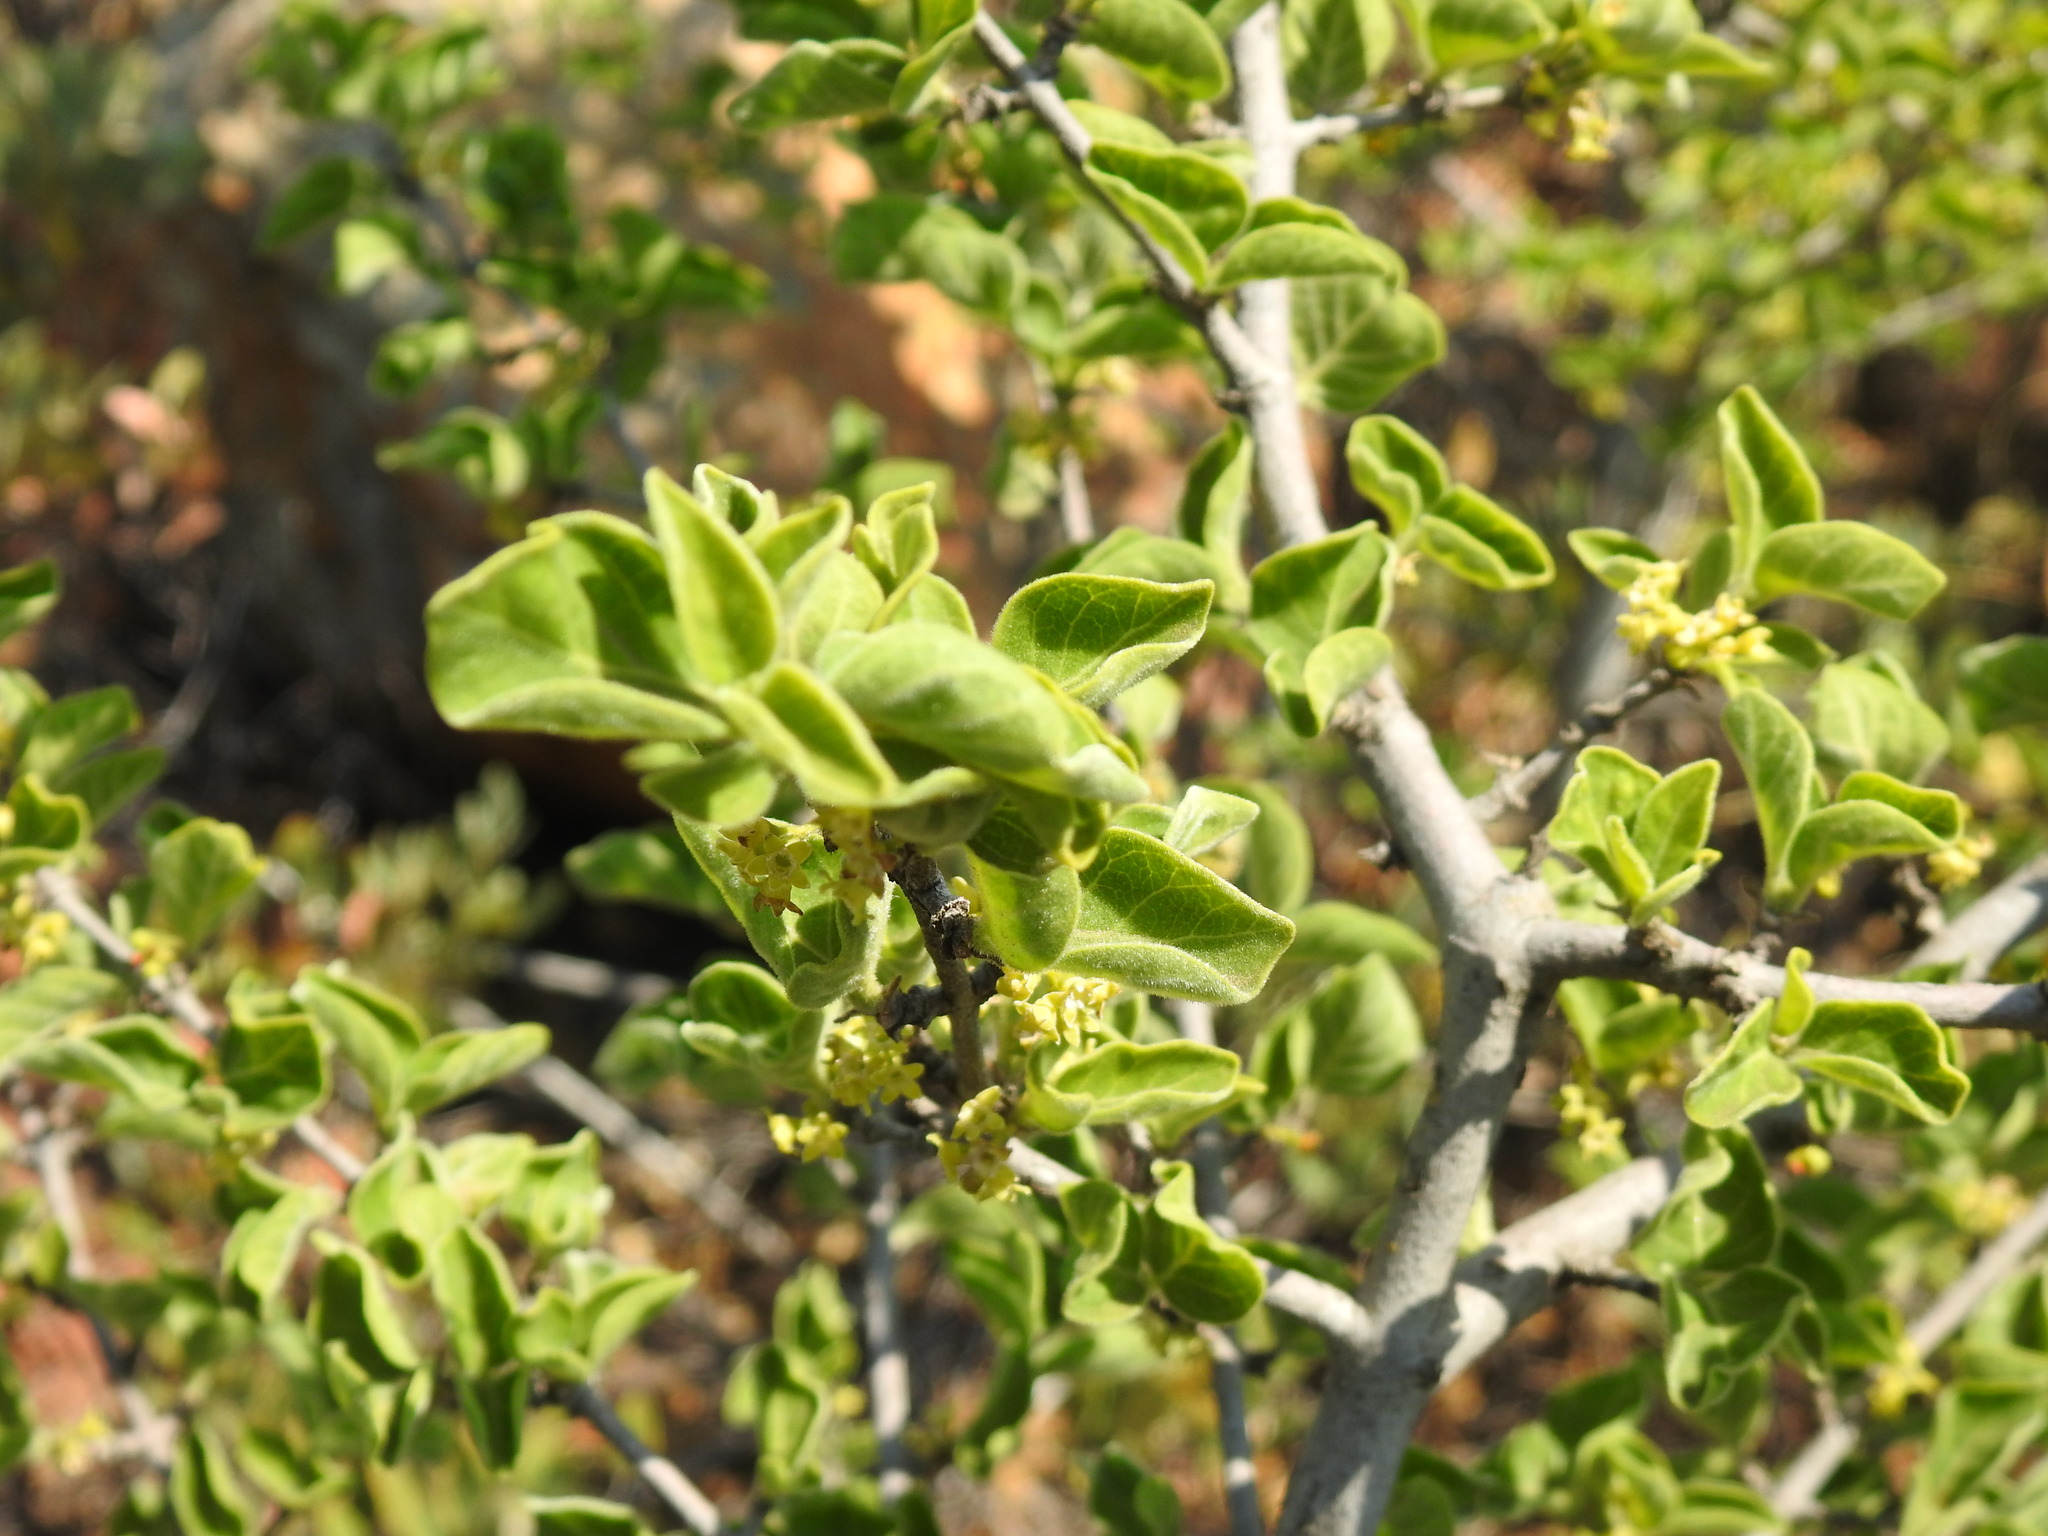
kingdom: Plantae
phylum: Tracheophyta
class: Magnoliopsida
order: Gentianales
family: Rubiaceae
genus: Afrocanthium
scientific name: Afrocanthium gilfillanii
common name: Velvet rock-alder
